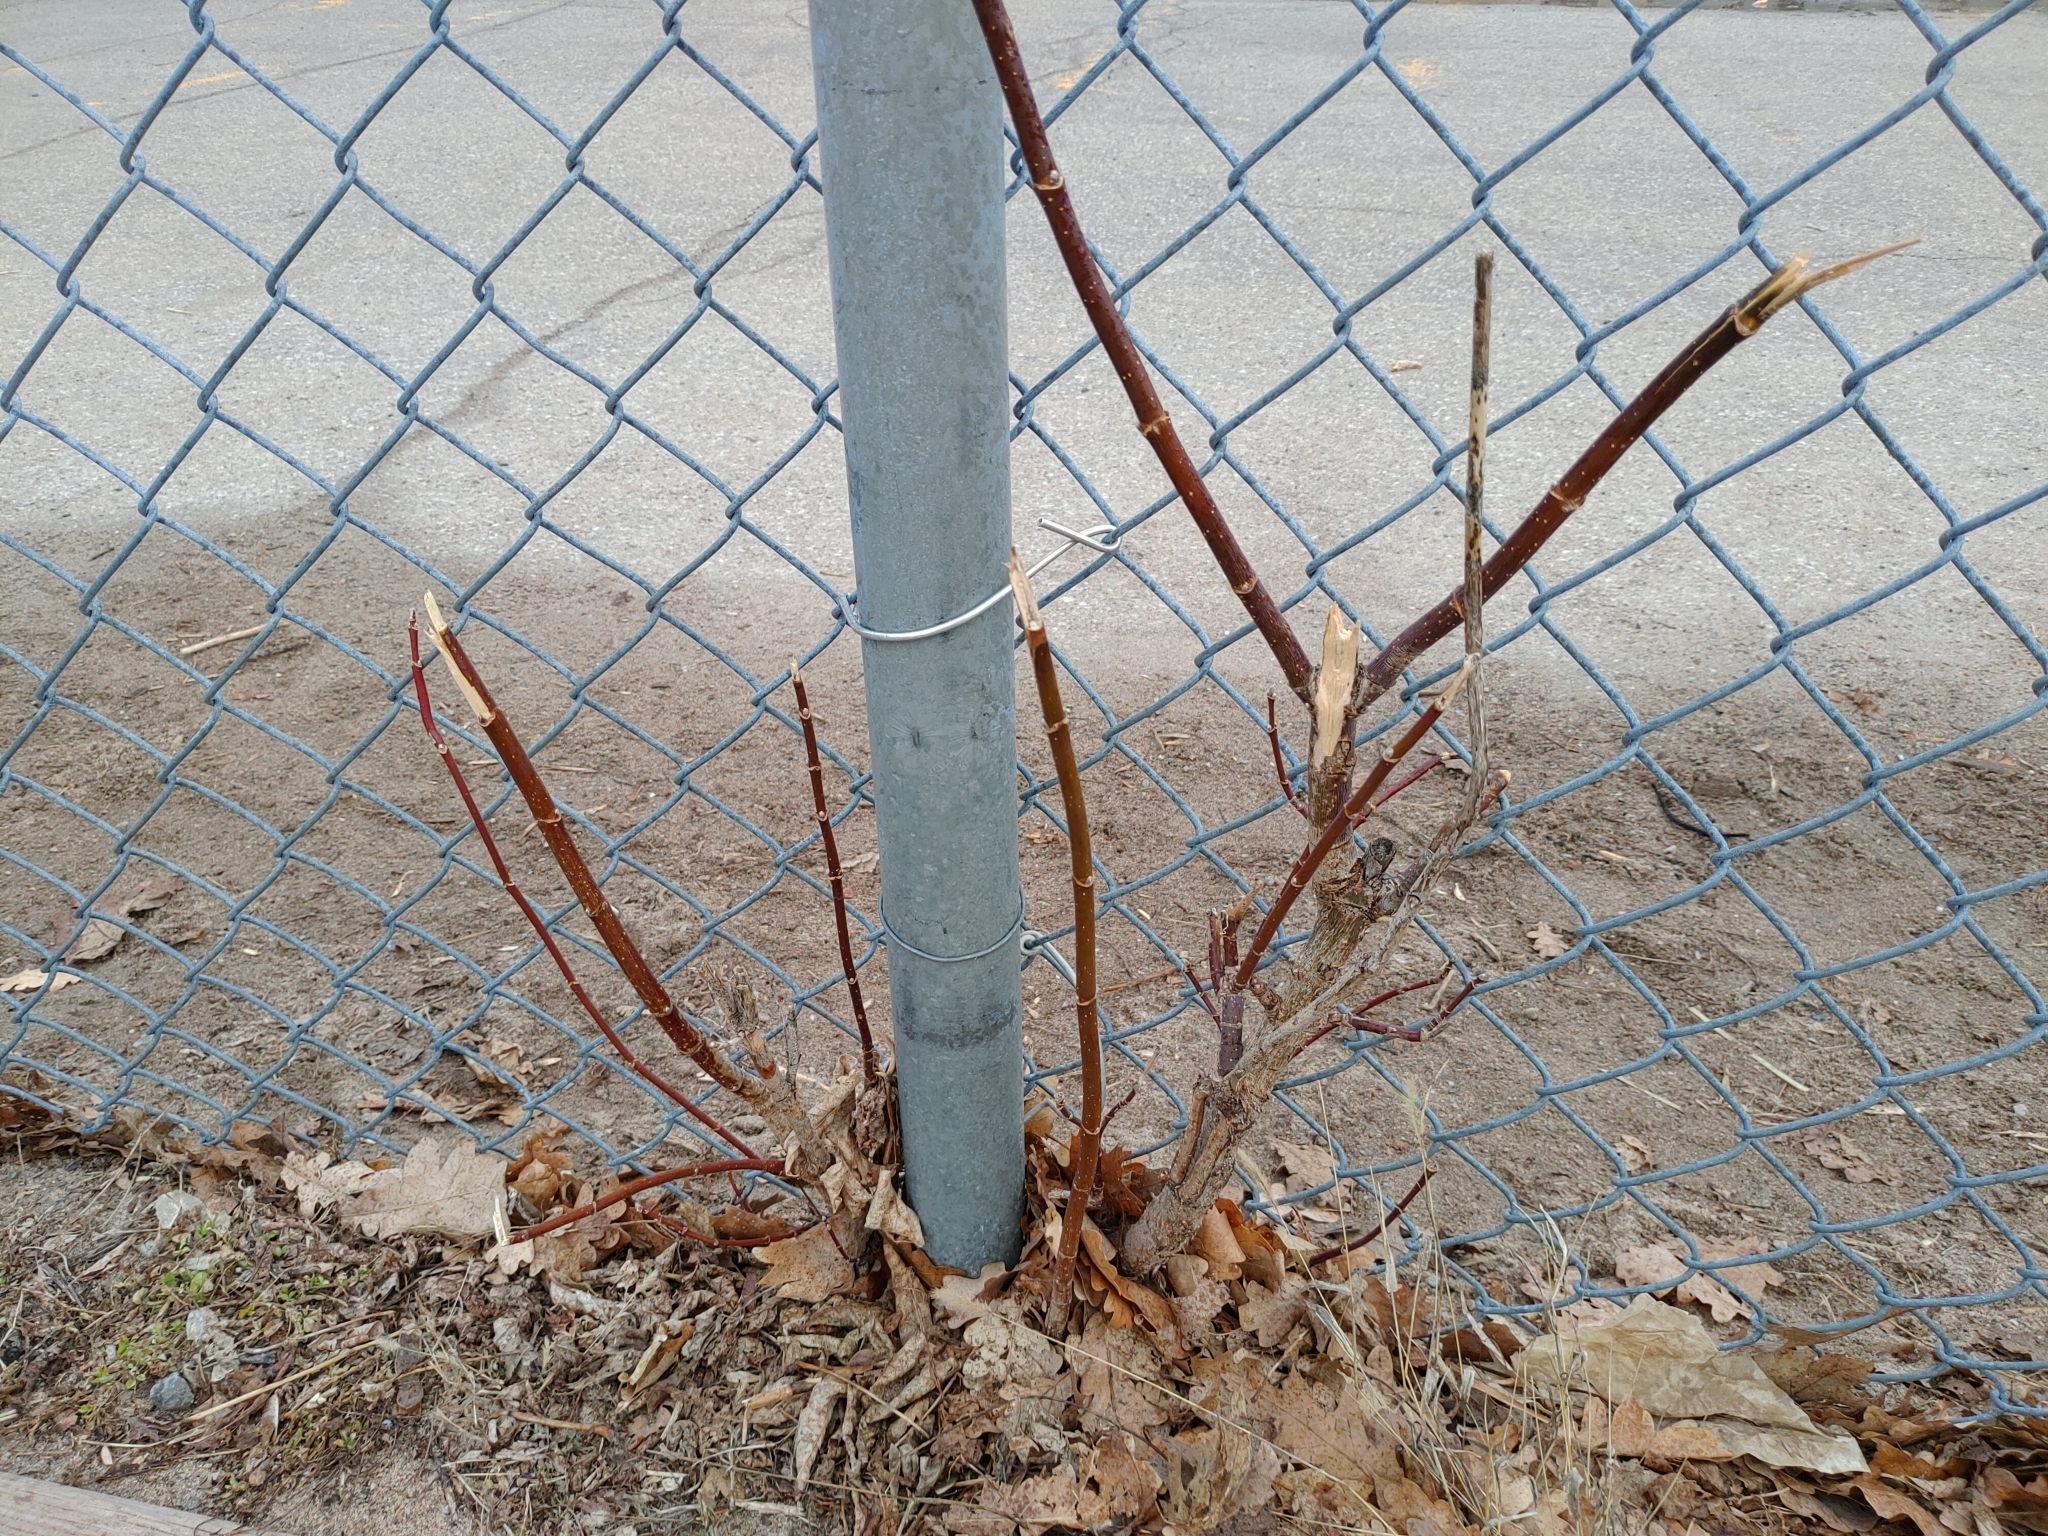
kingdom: Plantae
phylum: Tracheophyta
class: Magnoliopsida
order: Sapindales
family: Sapindaceae
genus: Acer
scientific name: Acer negundo
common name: Ashleaf maple
